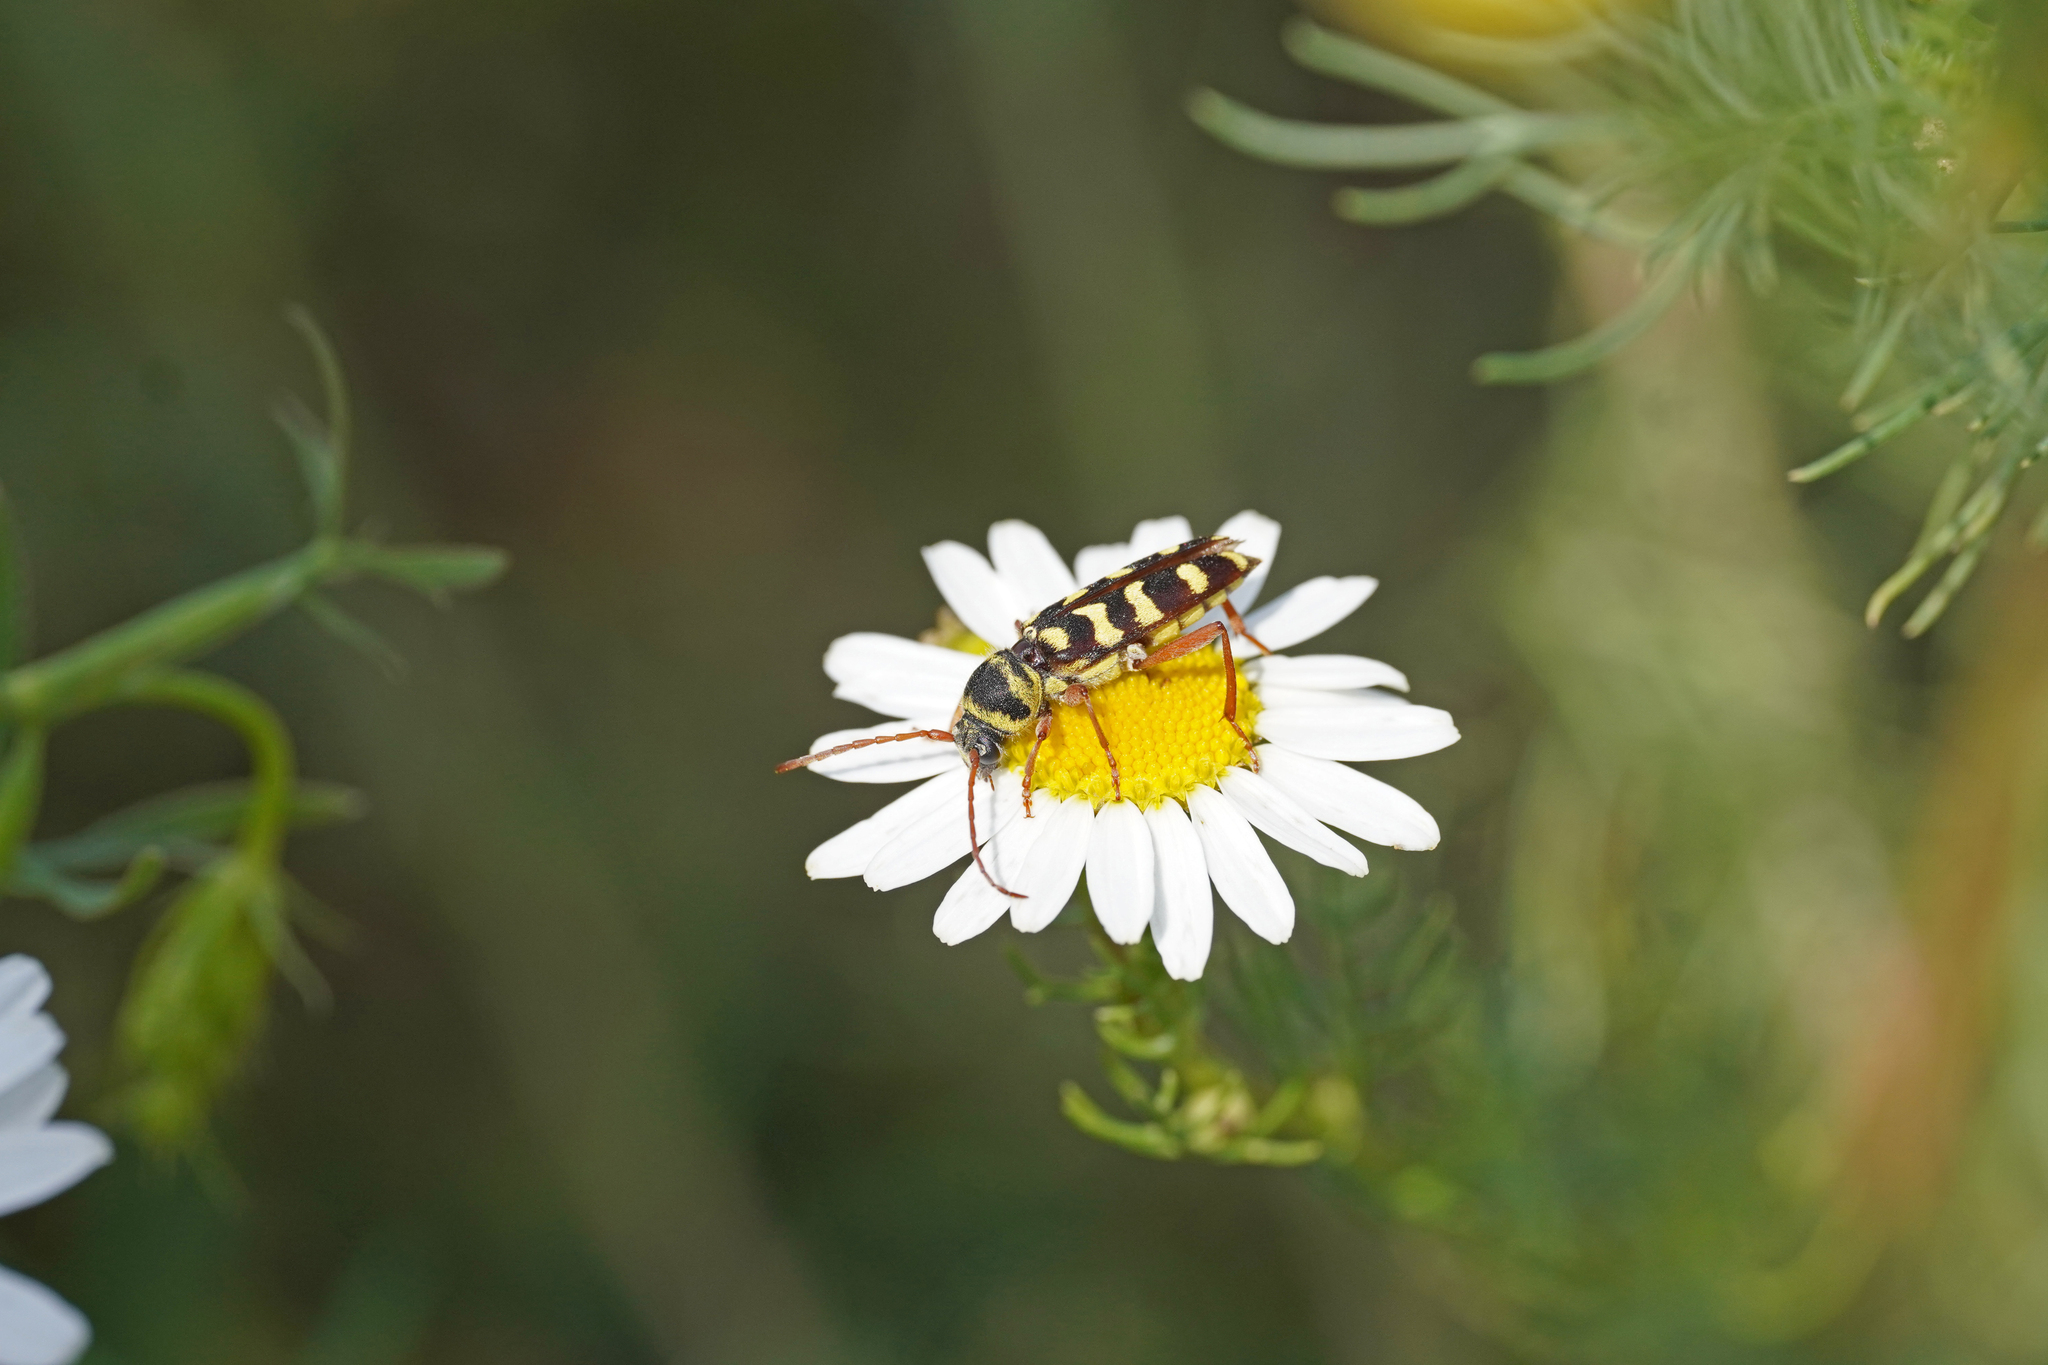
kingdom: Animalia
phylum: Arthropoda
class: Insecta
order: Coleoptera
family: Cerambycidae
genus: Plagionotus
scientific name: Plagionotus floralis
